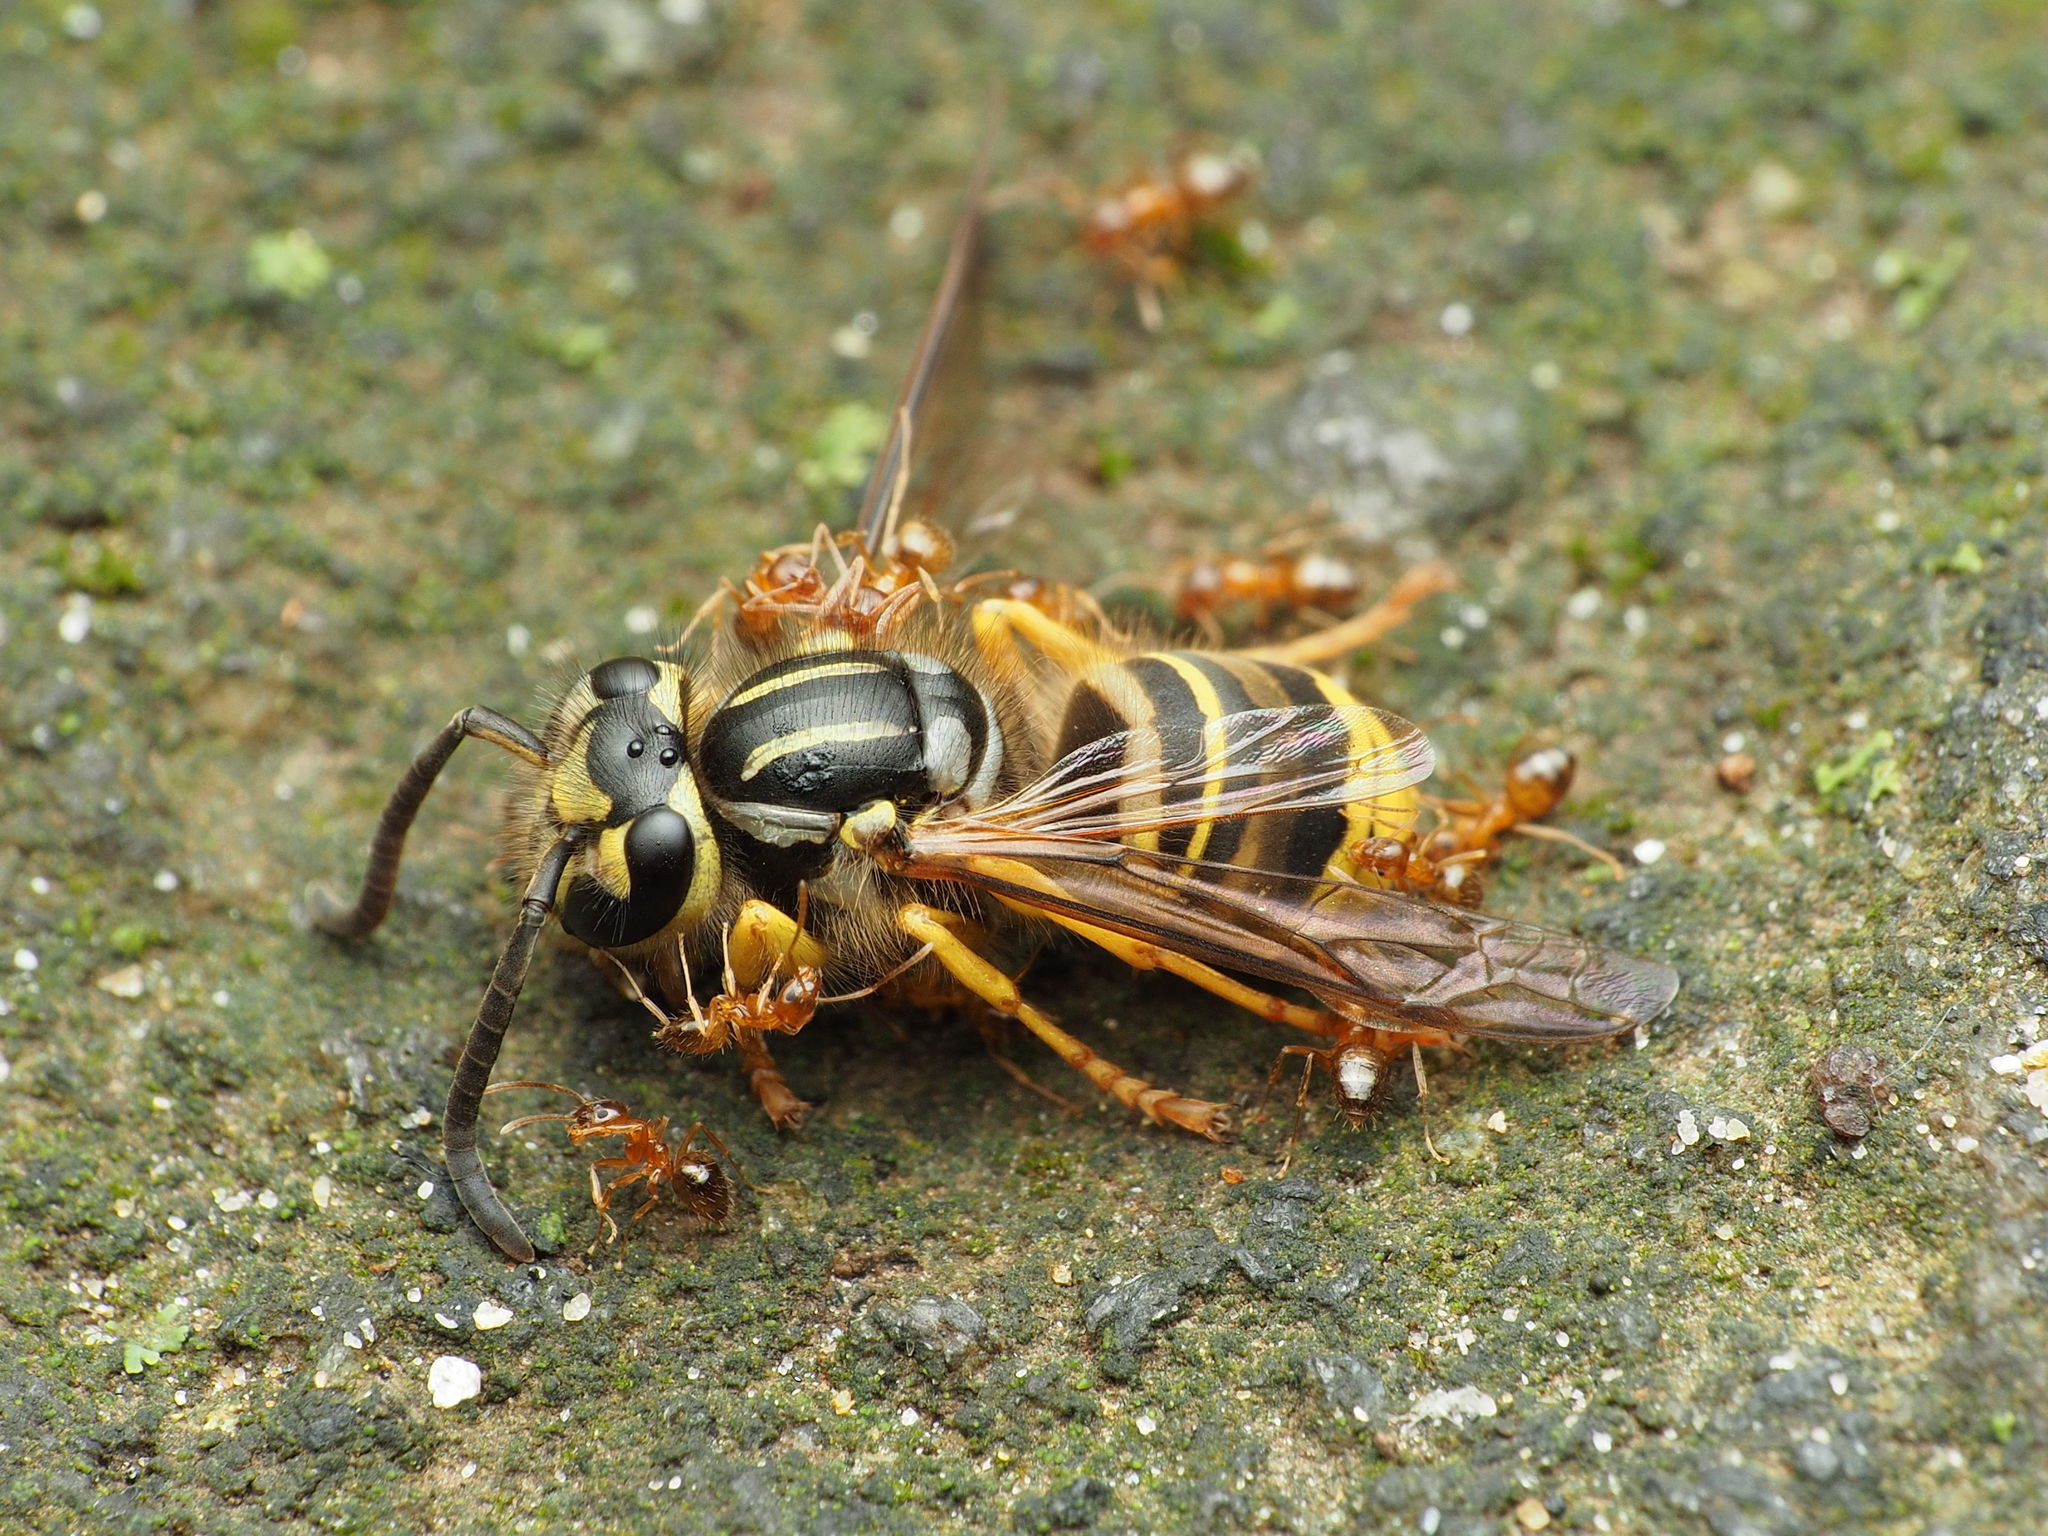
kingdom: Animalia
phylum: Arthropoda
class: Insecta
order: Hymenoptera
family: Vespidae
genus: Vespula
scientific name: Vespula squamosa
